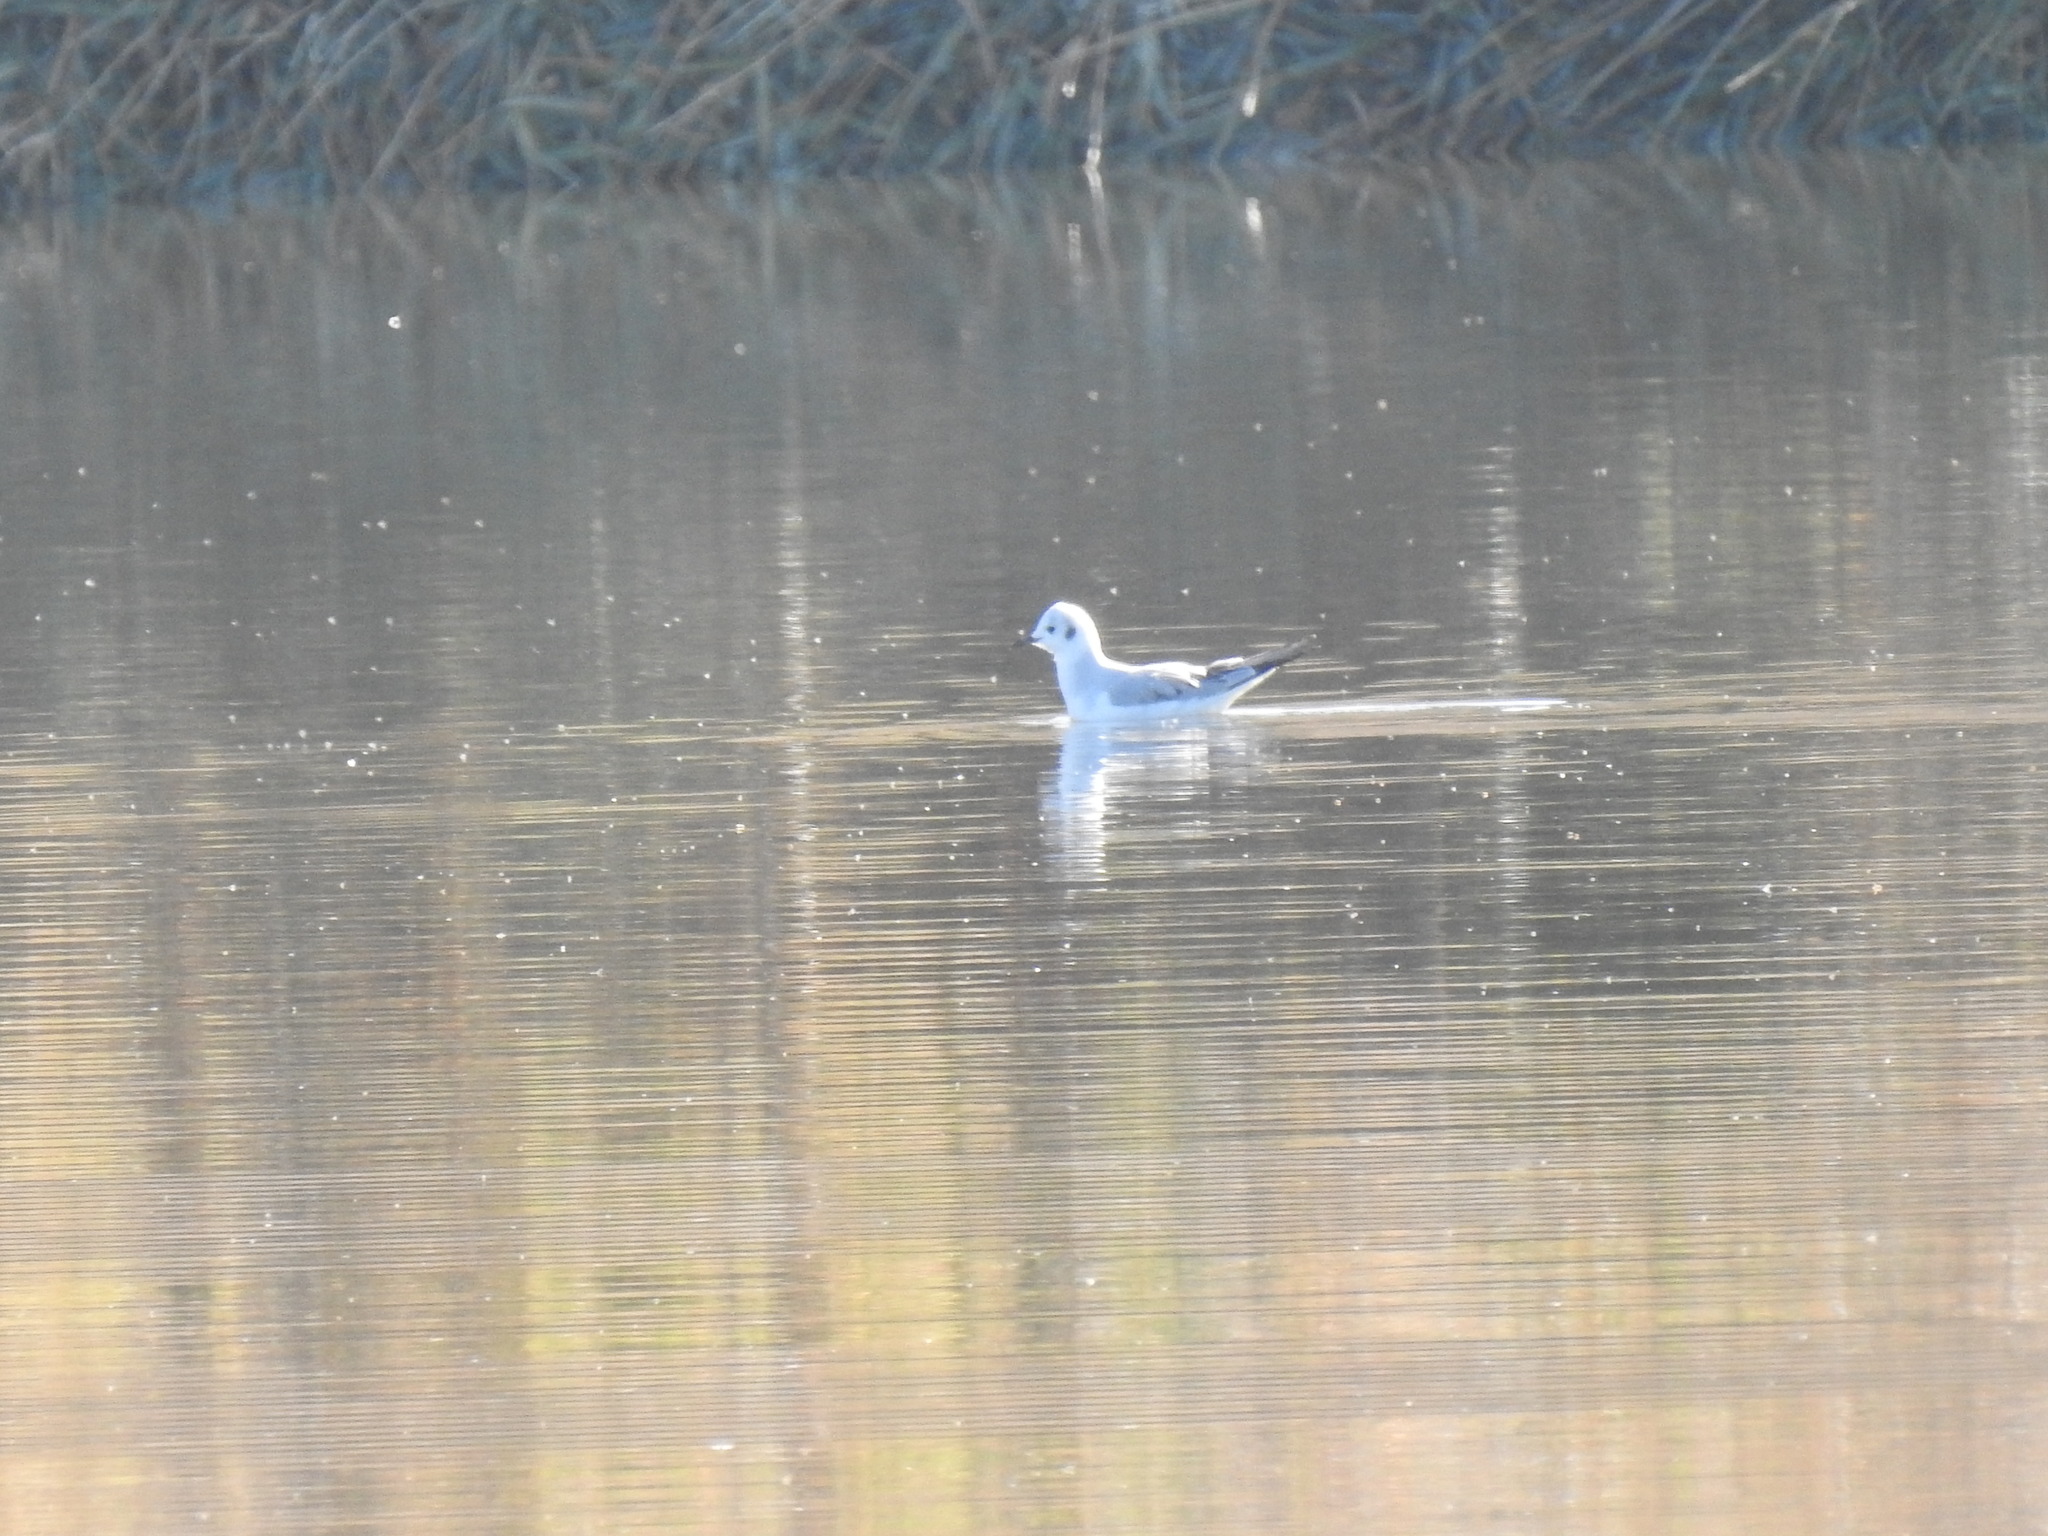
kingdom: Animalia
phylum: Chordata
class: Aves
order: Charadriiformes
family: Laridae
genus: Chroicocephalus
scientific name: Chroicocephalus philadelphia
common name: Bonaparte's gull
